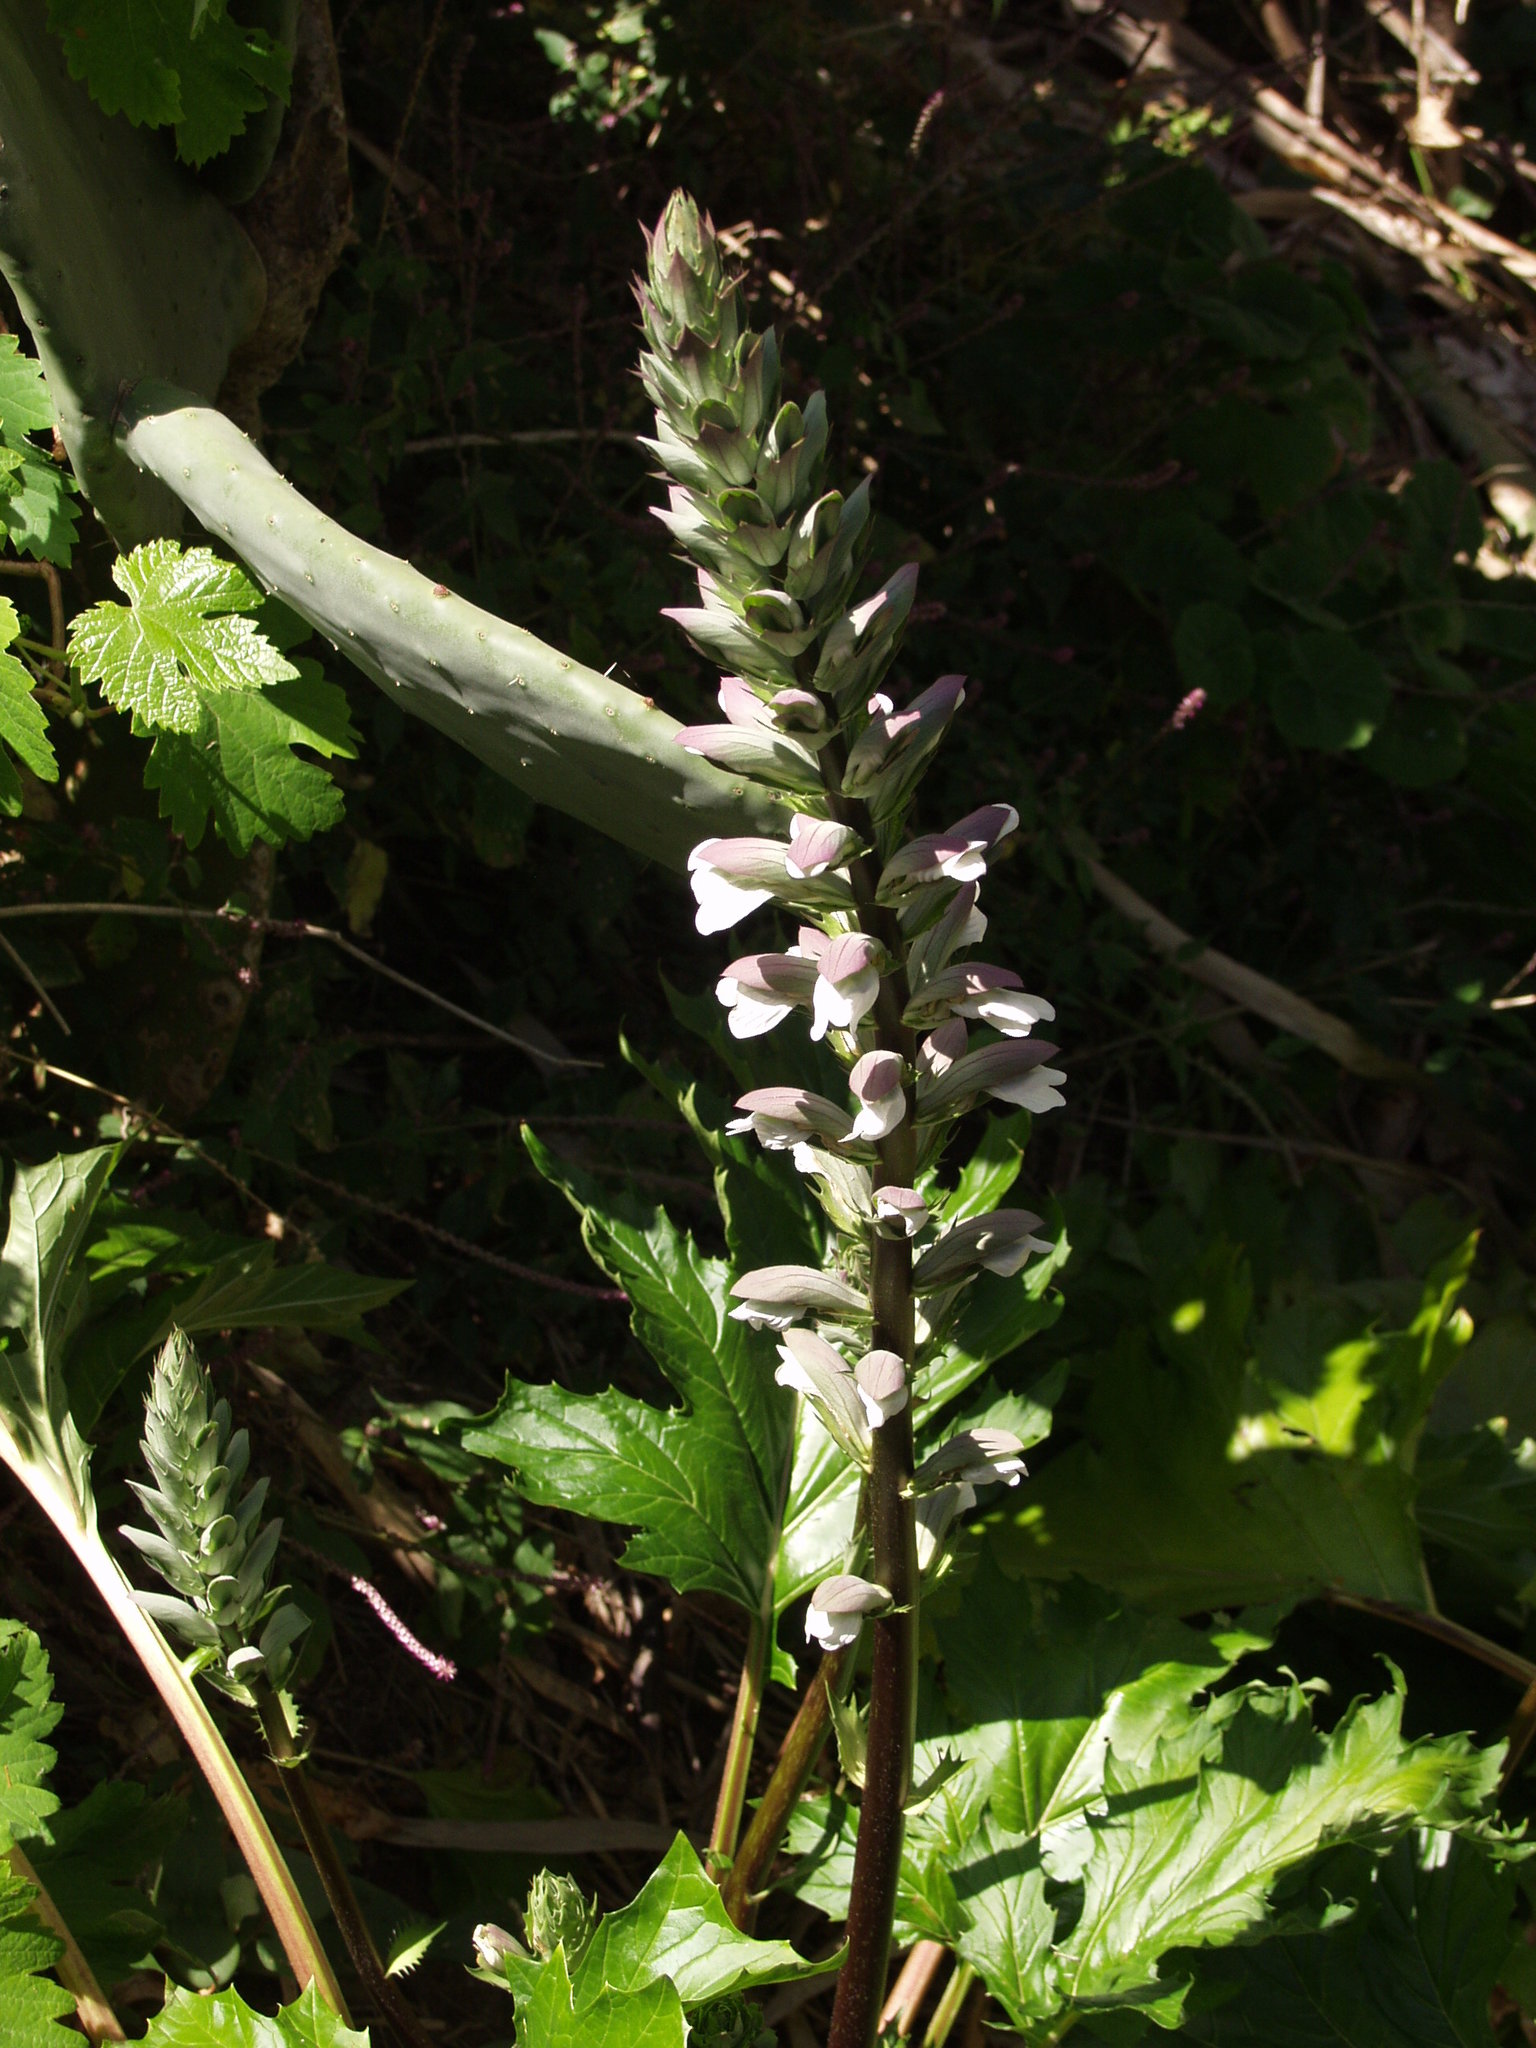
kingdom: Plantae
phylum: Tracheophyta
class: Magnoliopsida
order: Lamiales
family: Acanthaceae
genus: Acanthus
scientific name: Acanthus mollis
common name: Bear's-breech
